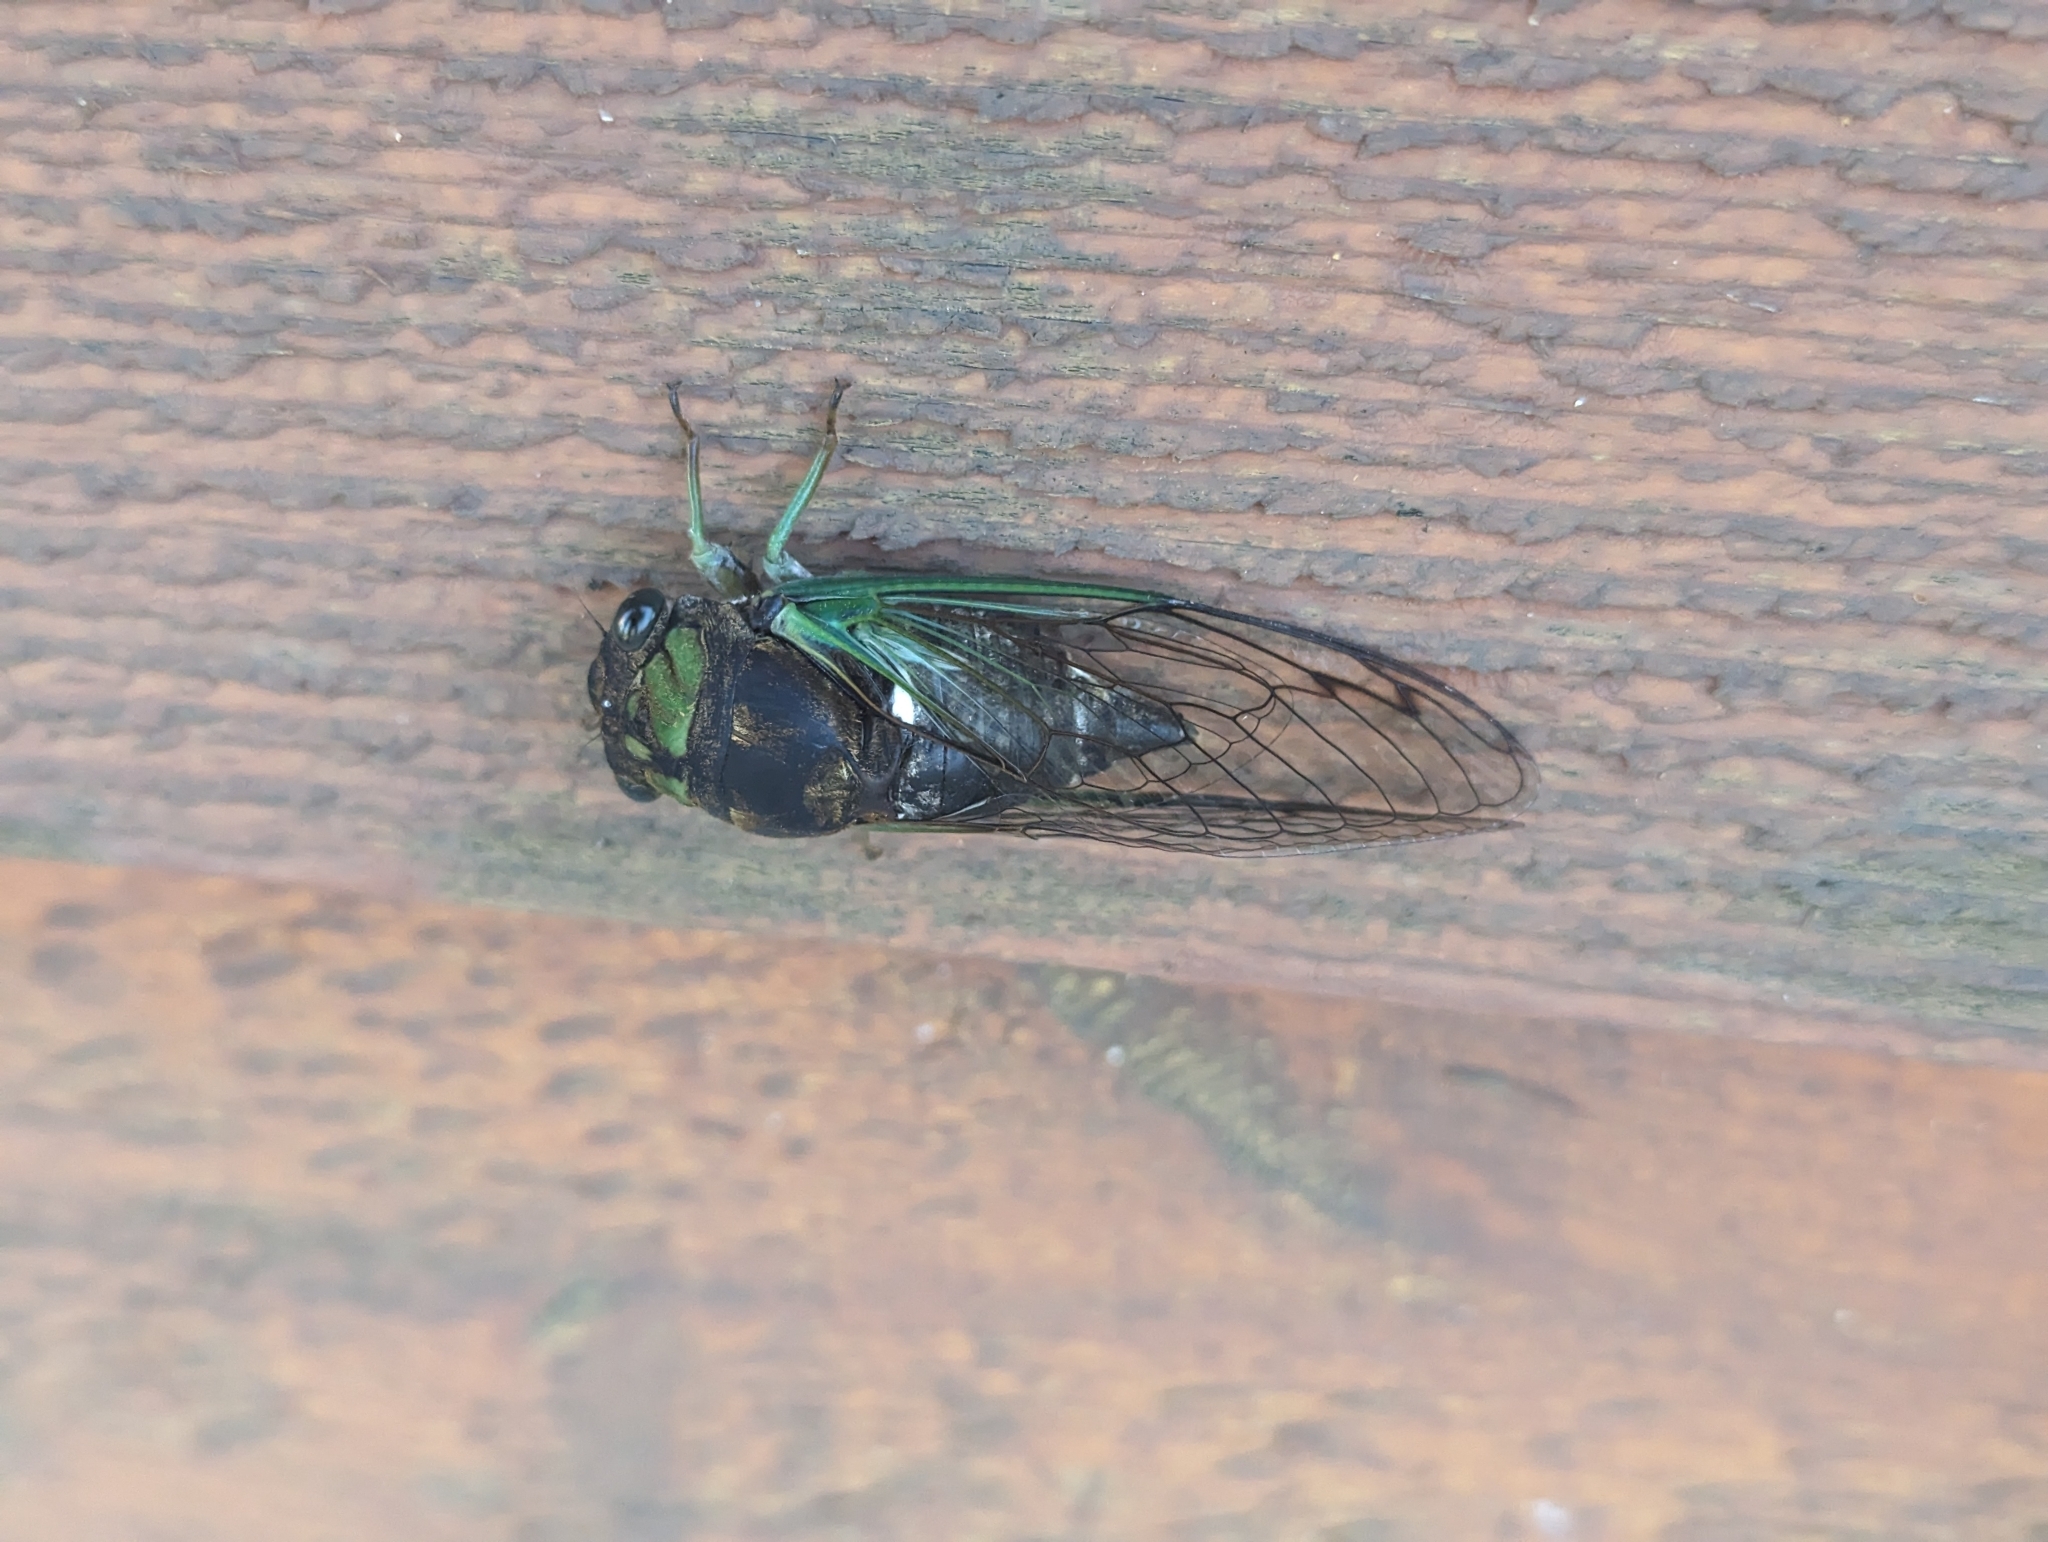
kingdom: Animalia
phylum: Arthropoda
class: Insecta
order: Hemiptera
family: Cicadidae
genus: Neotibicen
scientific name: Neotibicen tibicen
